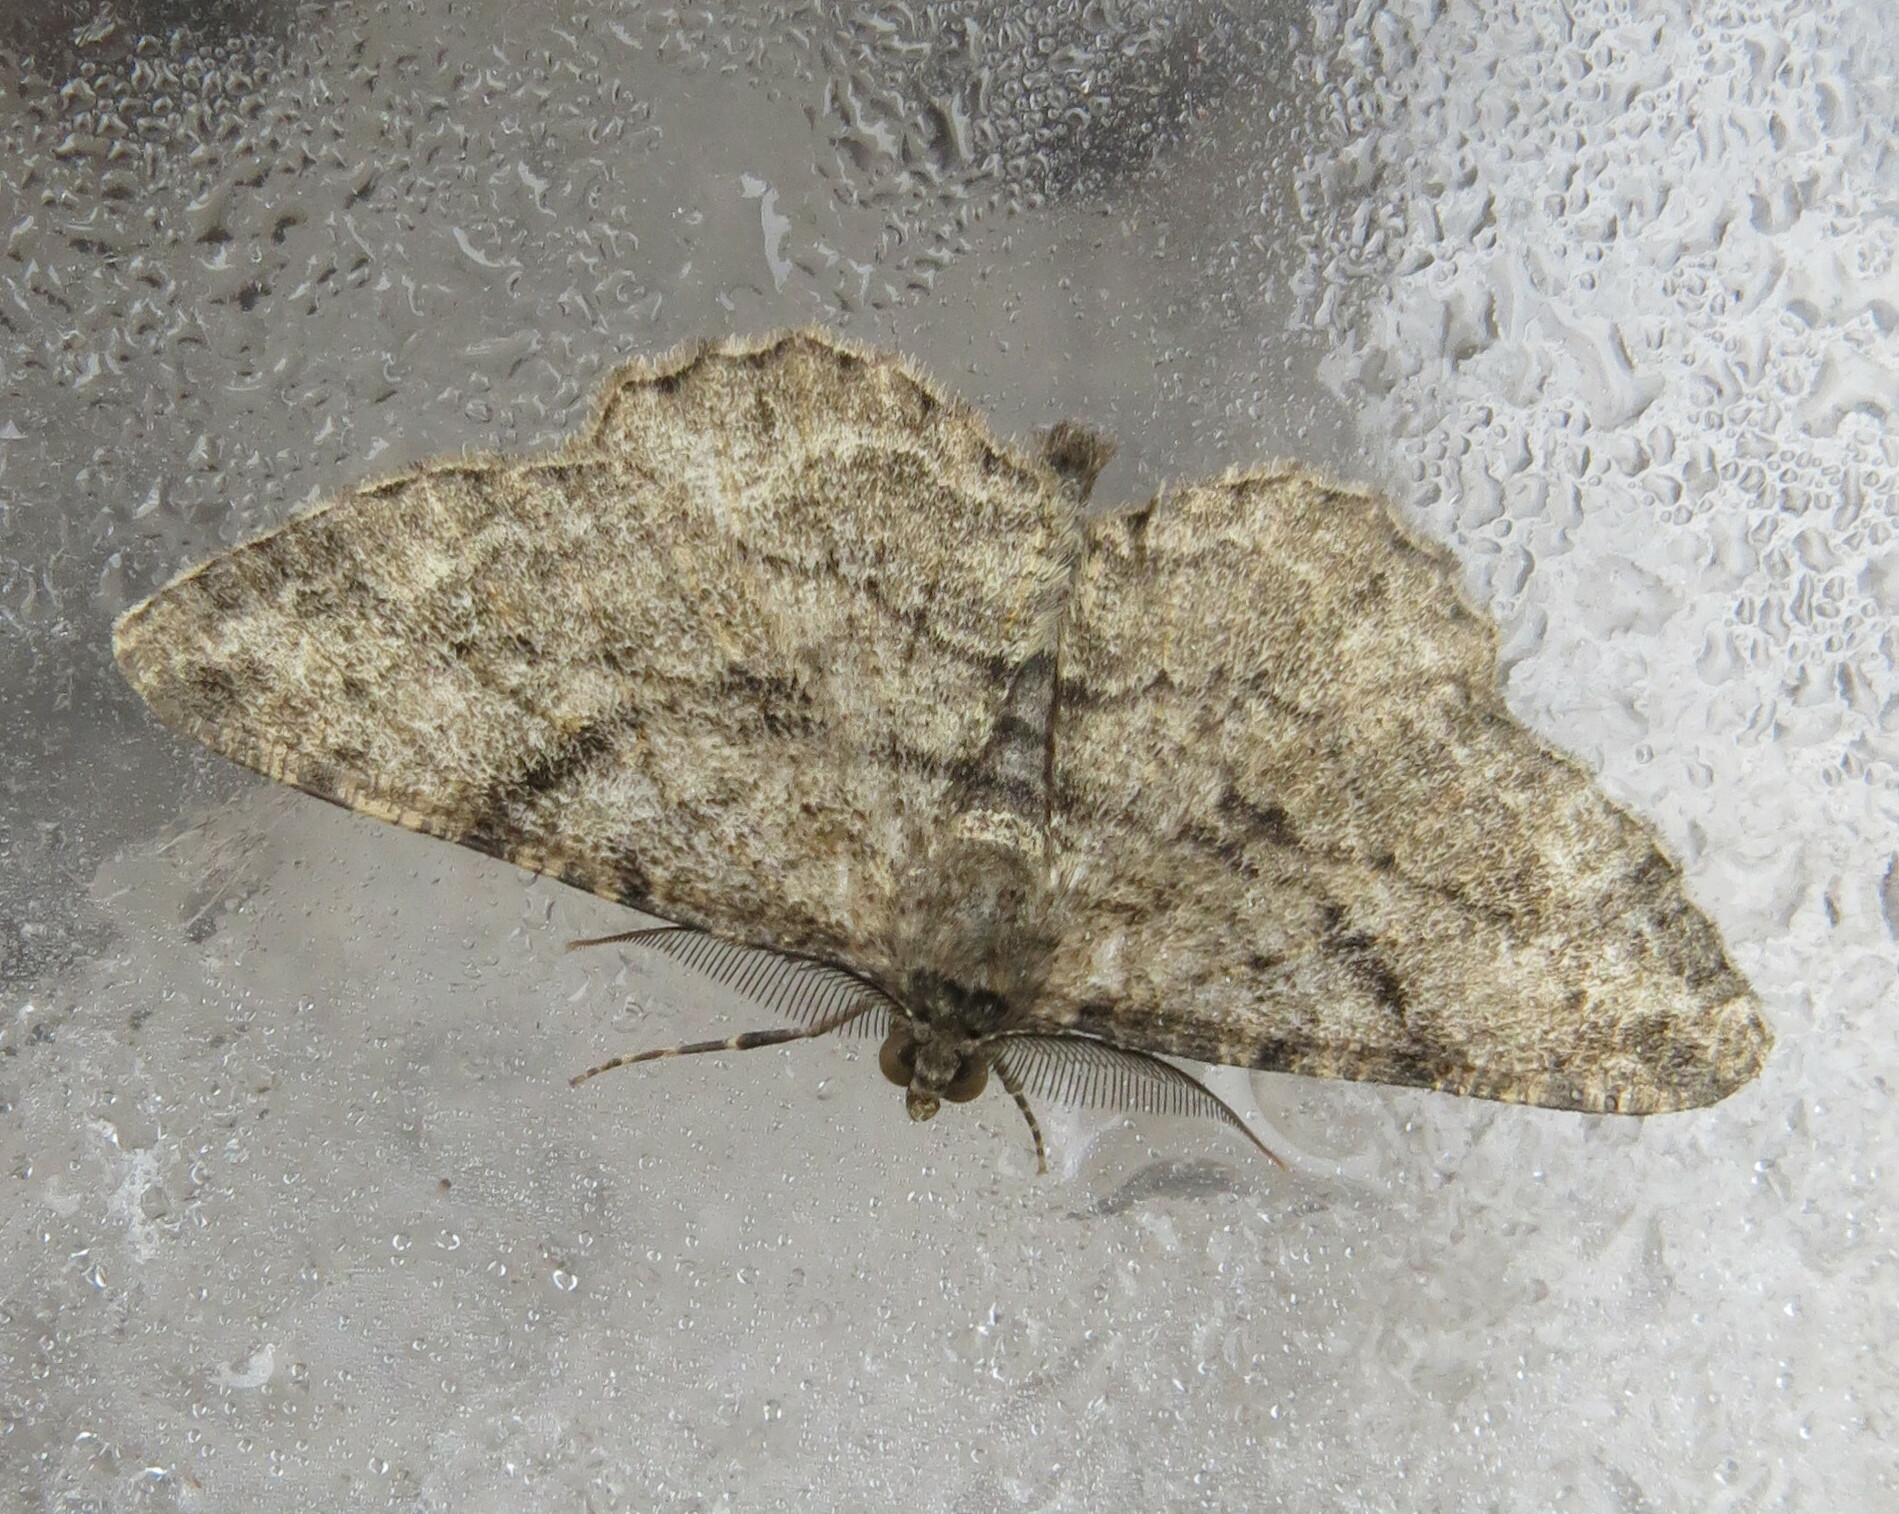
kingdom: Animalia
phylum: Arthropoda
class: Insecta
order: Lepidoptera
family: Geometridae
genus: Peribatodes
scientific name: Peribatodes rhomboidaria
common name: Willow beauty
